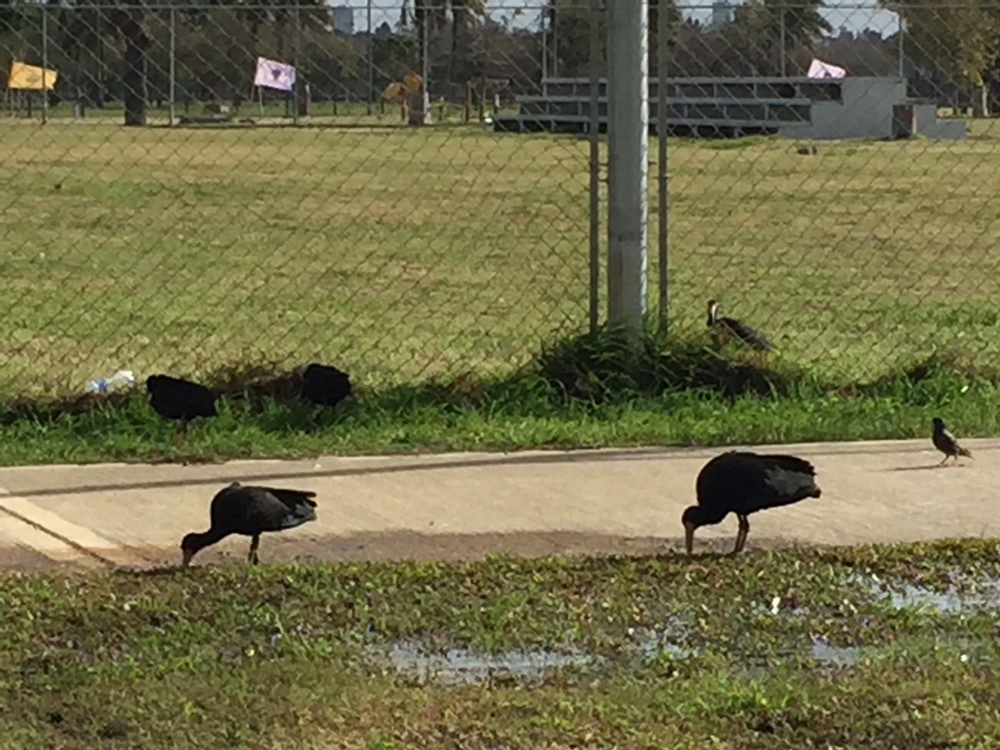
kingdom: Animalia
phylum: Chordata
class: Aves
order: Pelecaniformes
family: Threskiornithidae
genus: Phimosus
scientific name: Phimosus infuscatus
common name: Bare-faced ibis
